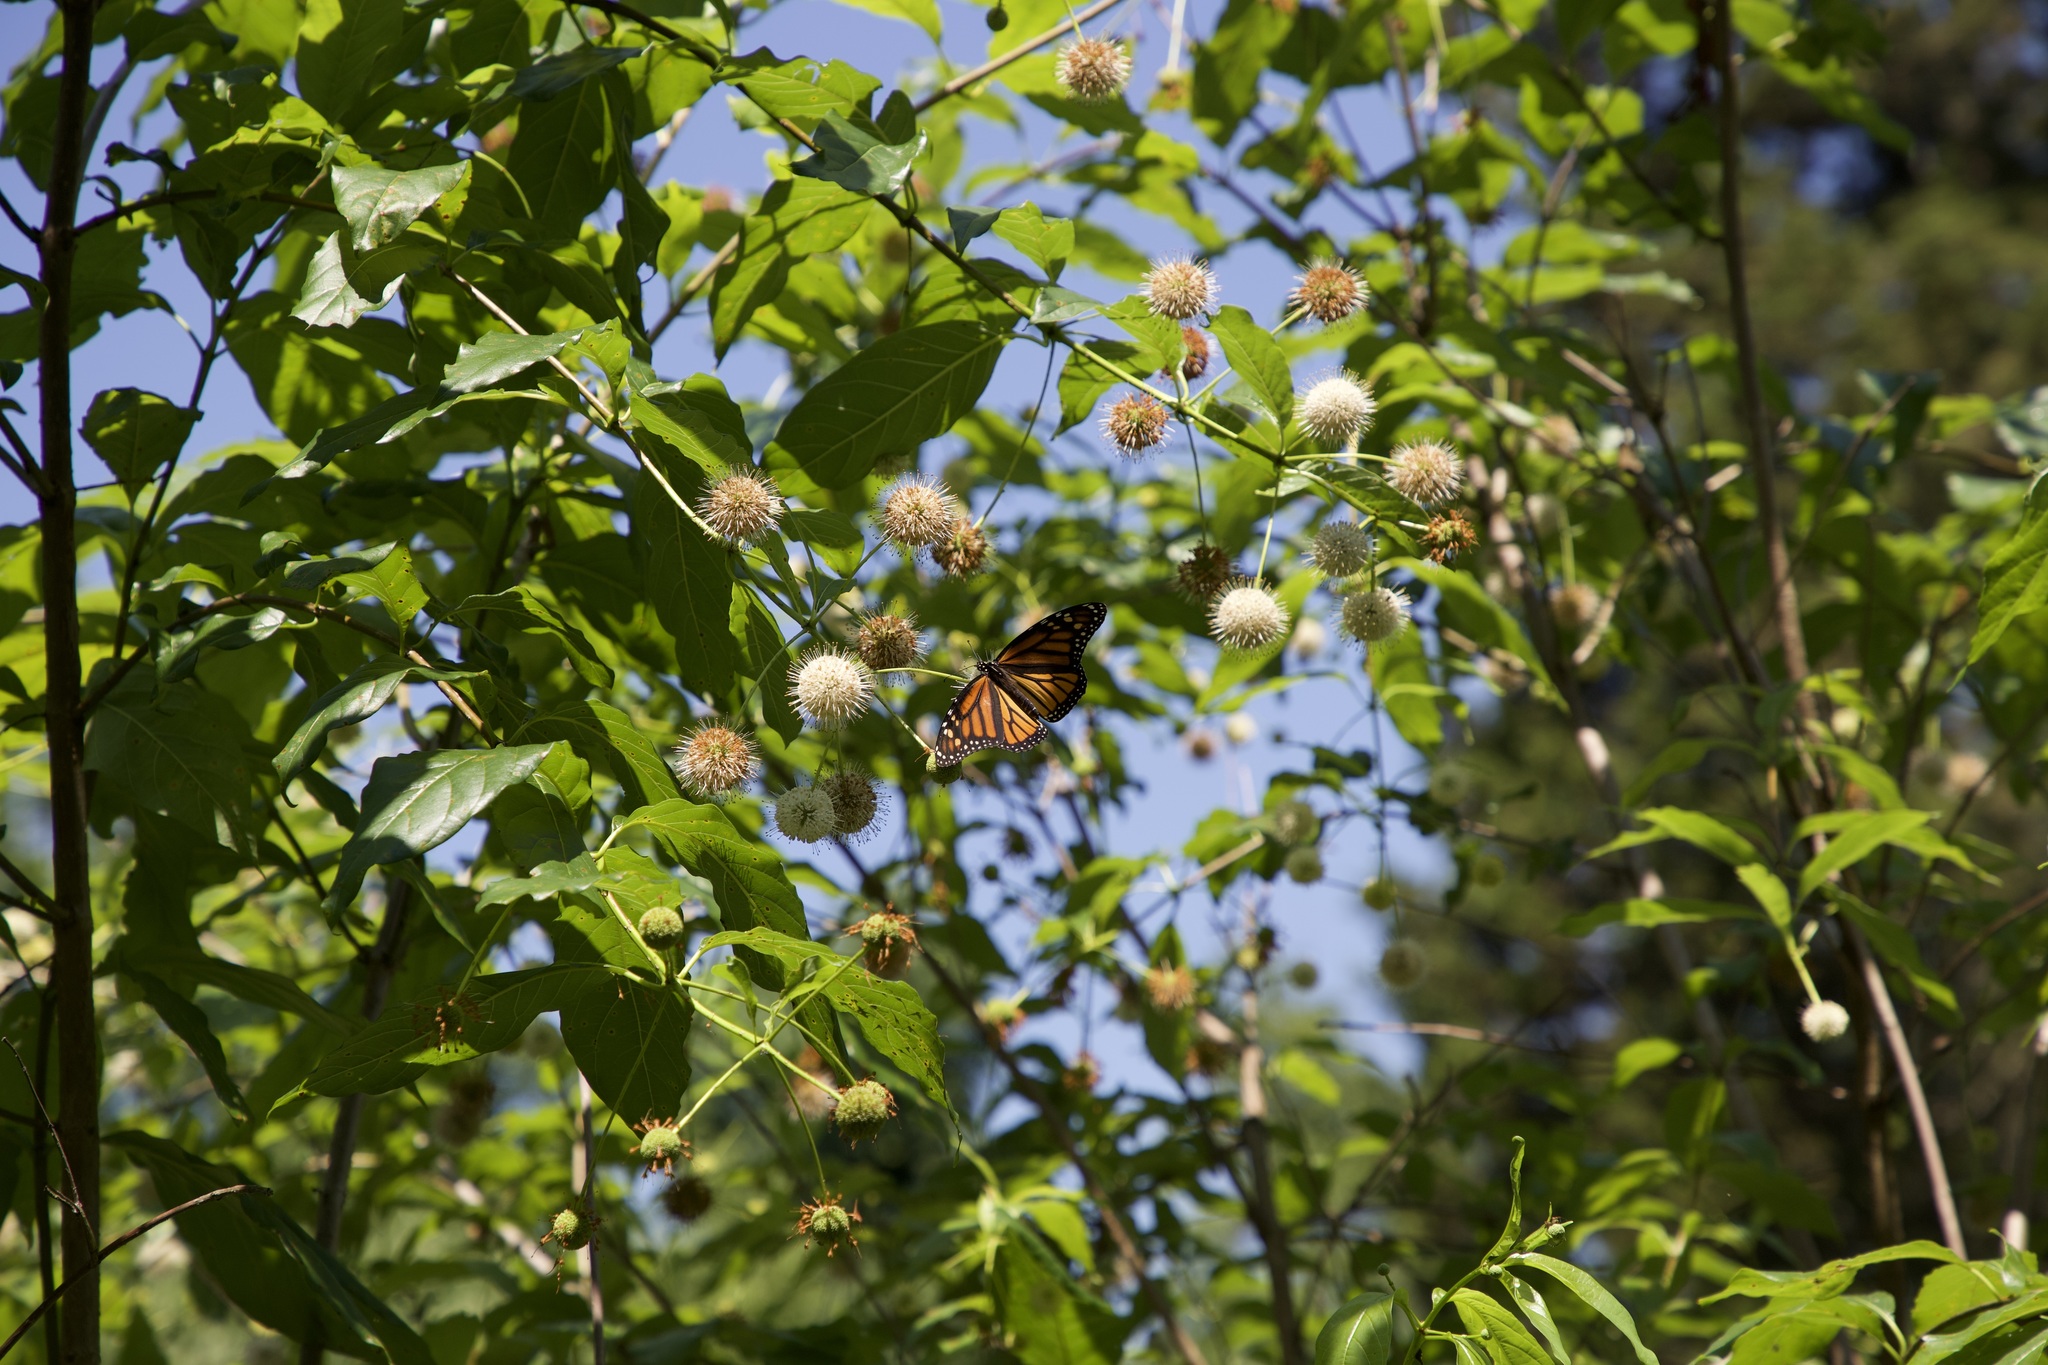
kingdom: Animalia
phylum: Arthropoda
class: Insecta
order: Lepidoptera
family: Nymphalidae
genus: Danaus
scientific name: Danaus plexippus
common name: Monarch
